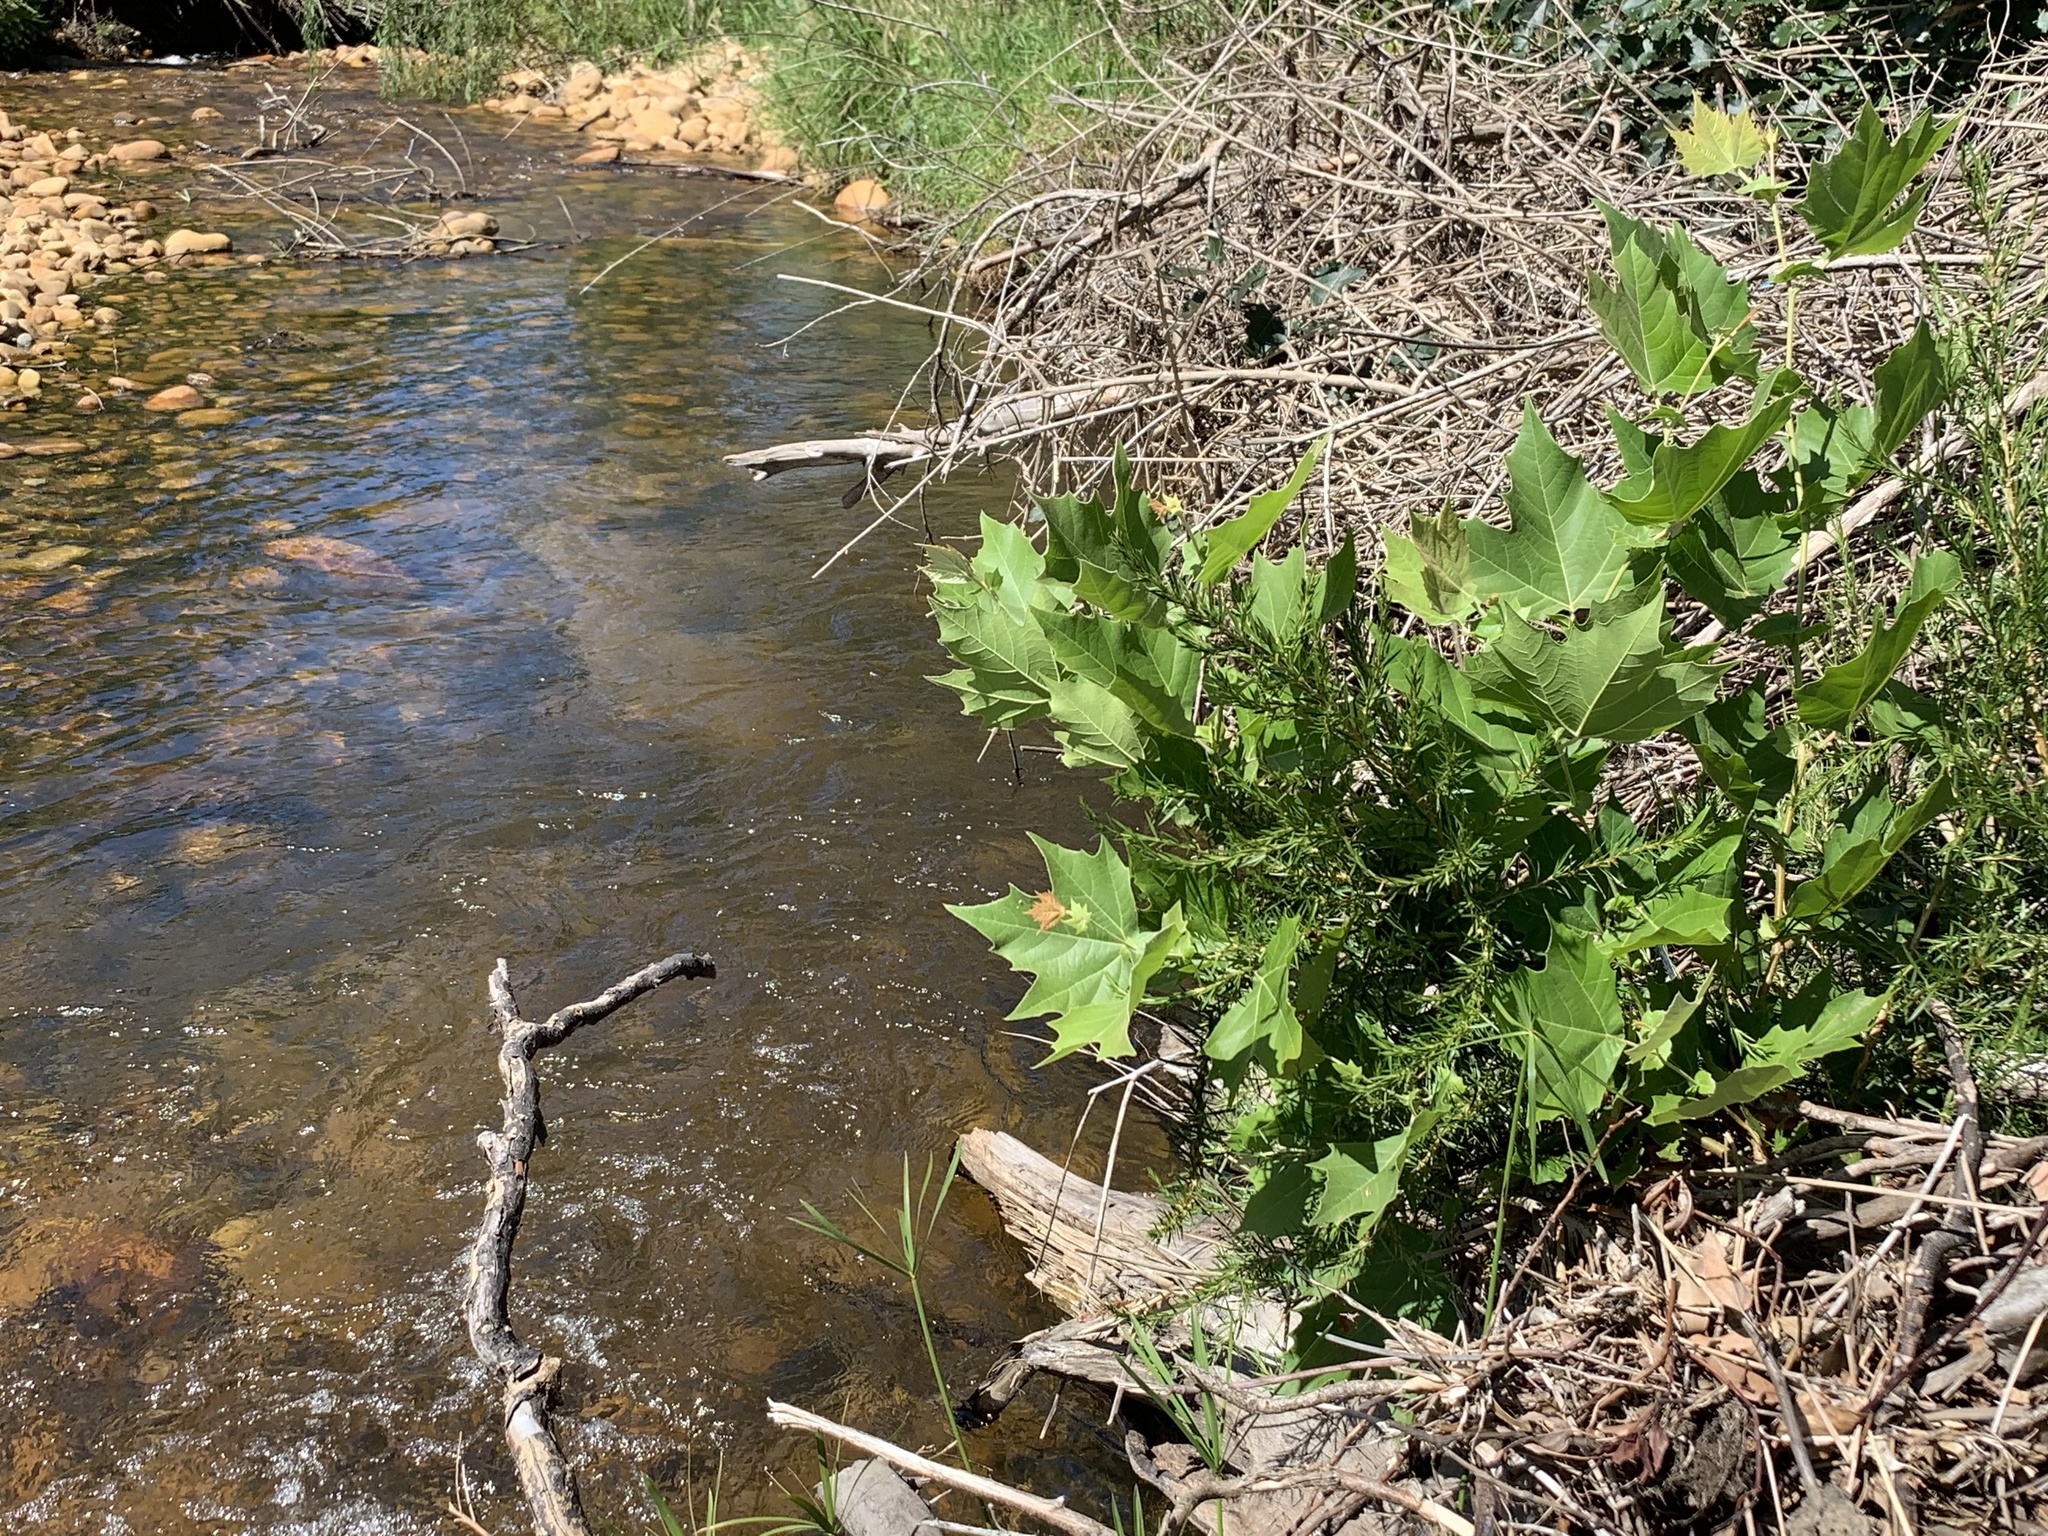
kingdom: Plantae
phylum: Tracheophyta
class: Magnoliopsida
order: Proteales
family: Platanaceae
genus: Platanus
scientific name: Platanus hispanica
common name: London plane
